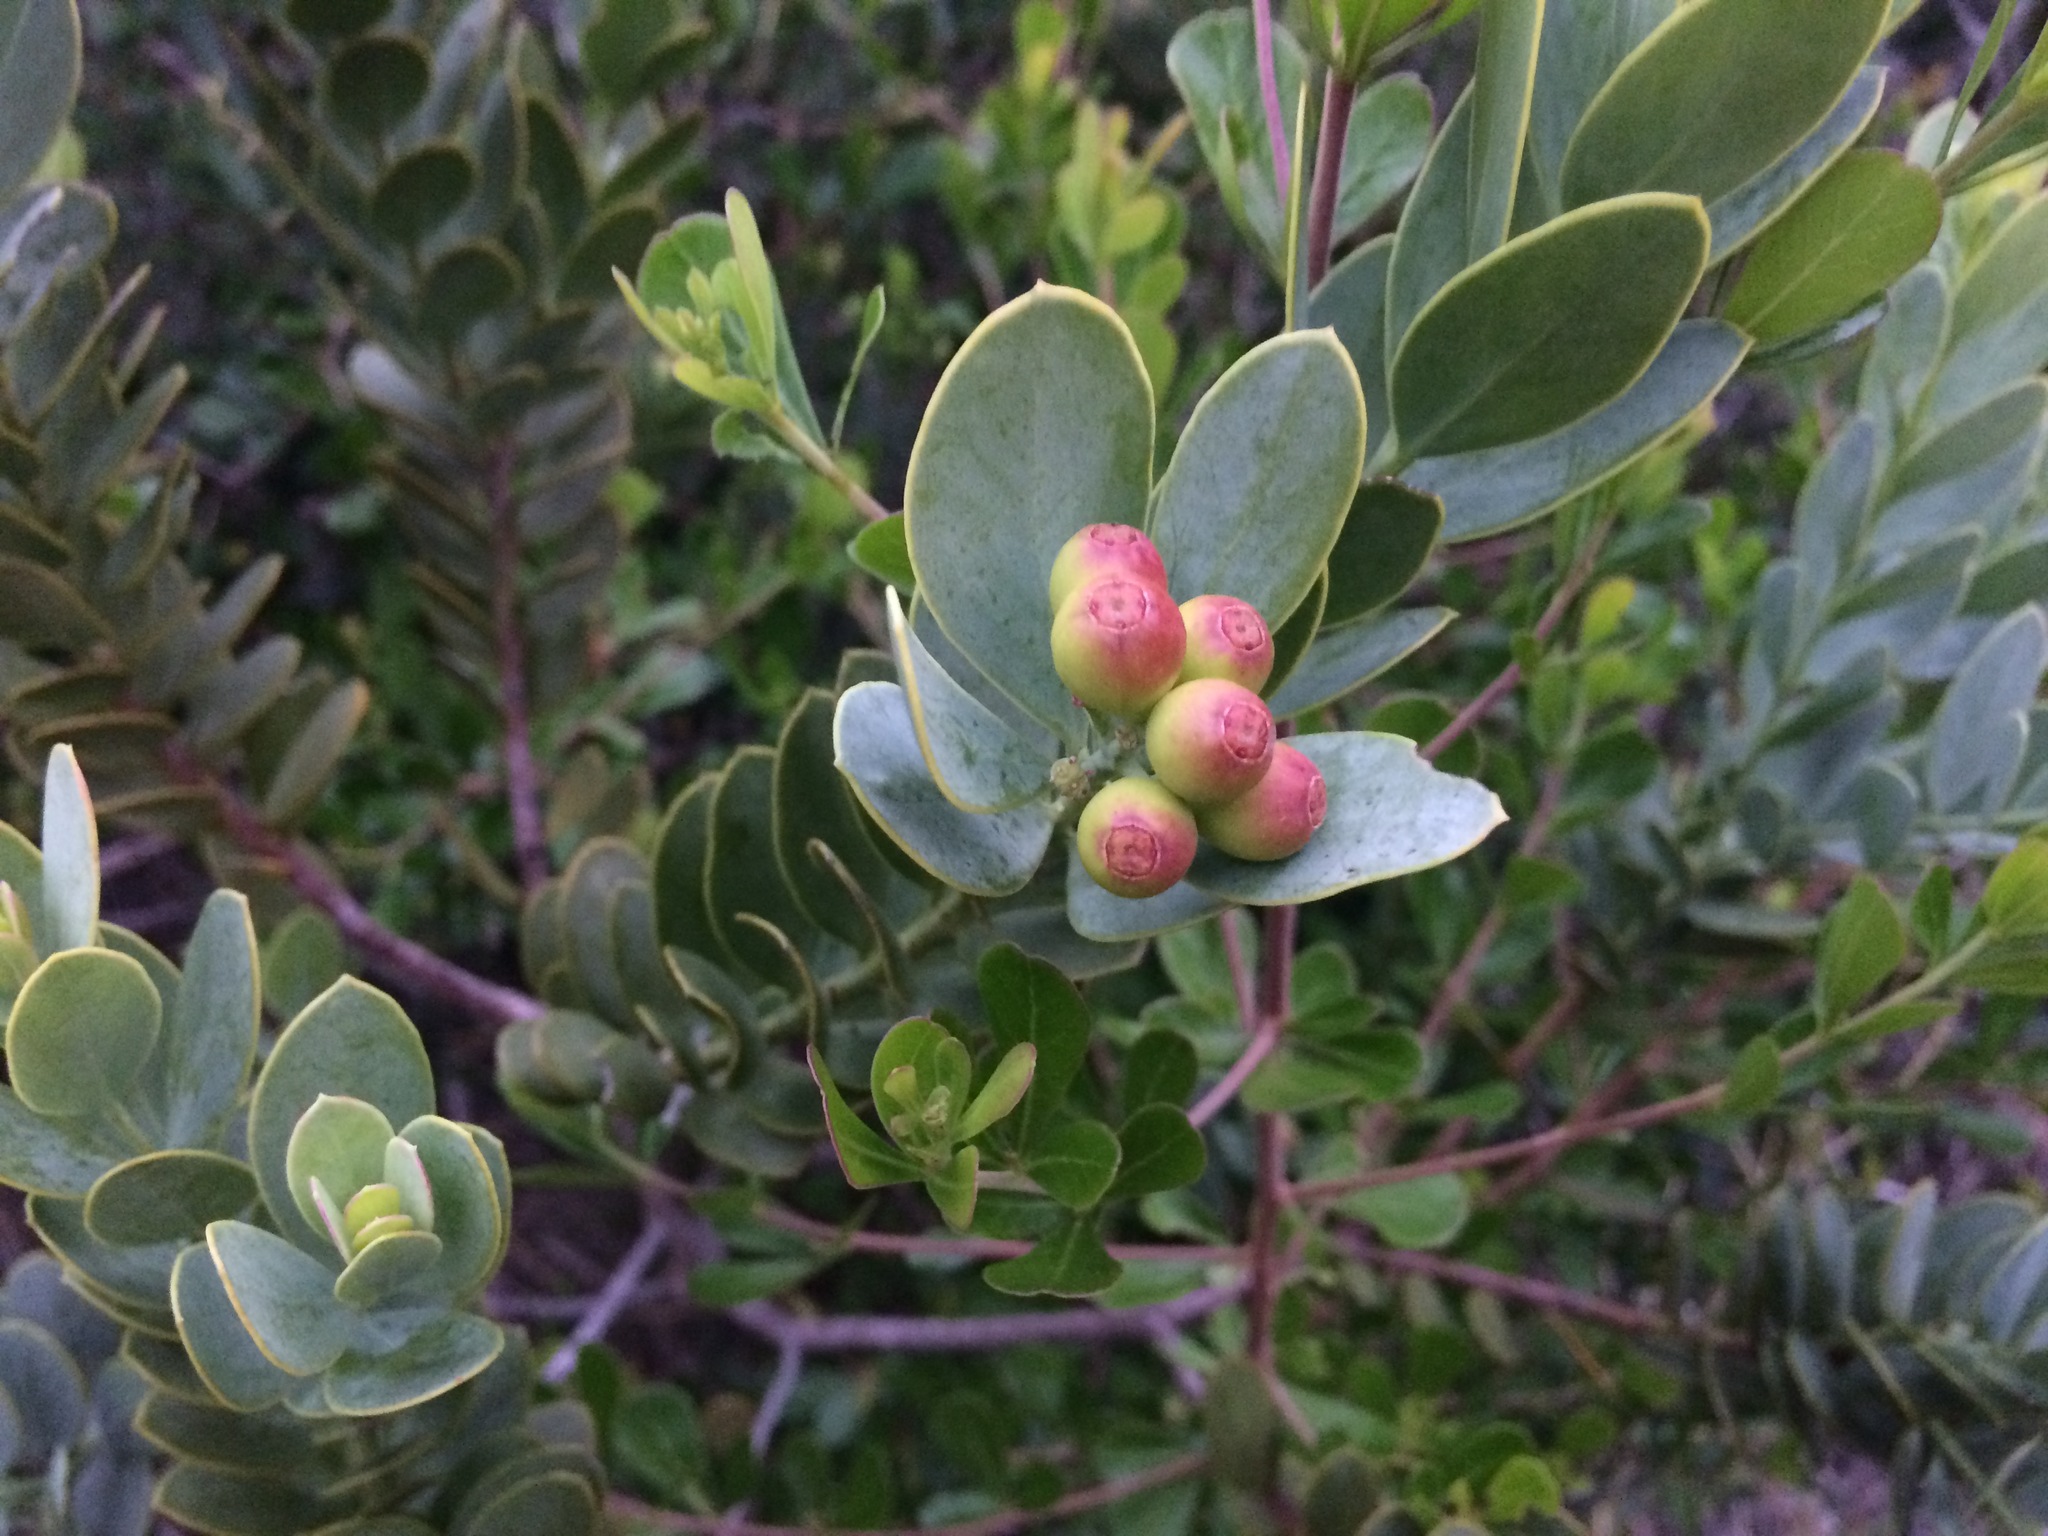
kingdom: Plantae
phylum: Tracheophyta
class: Magnoliopsida
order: Santalales
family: Santalaceae
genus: Osyris
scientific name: Osyris compressa
